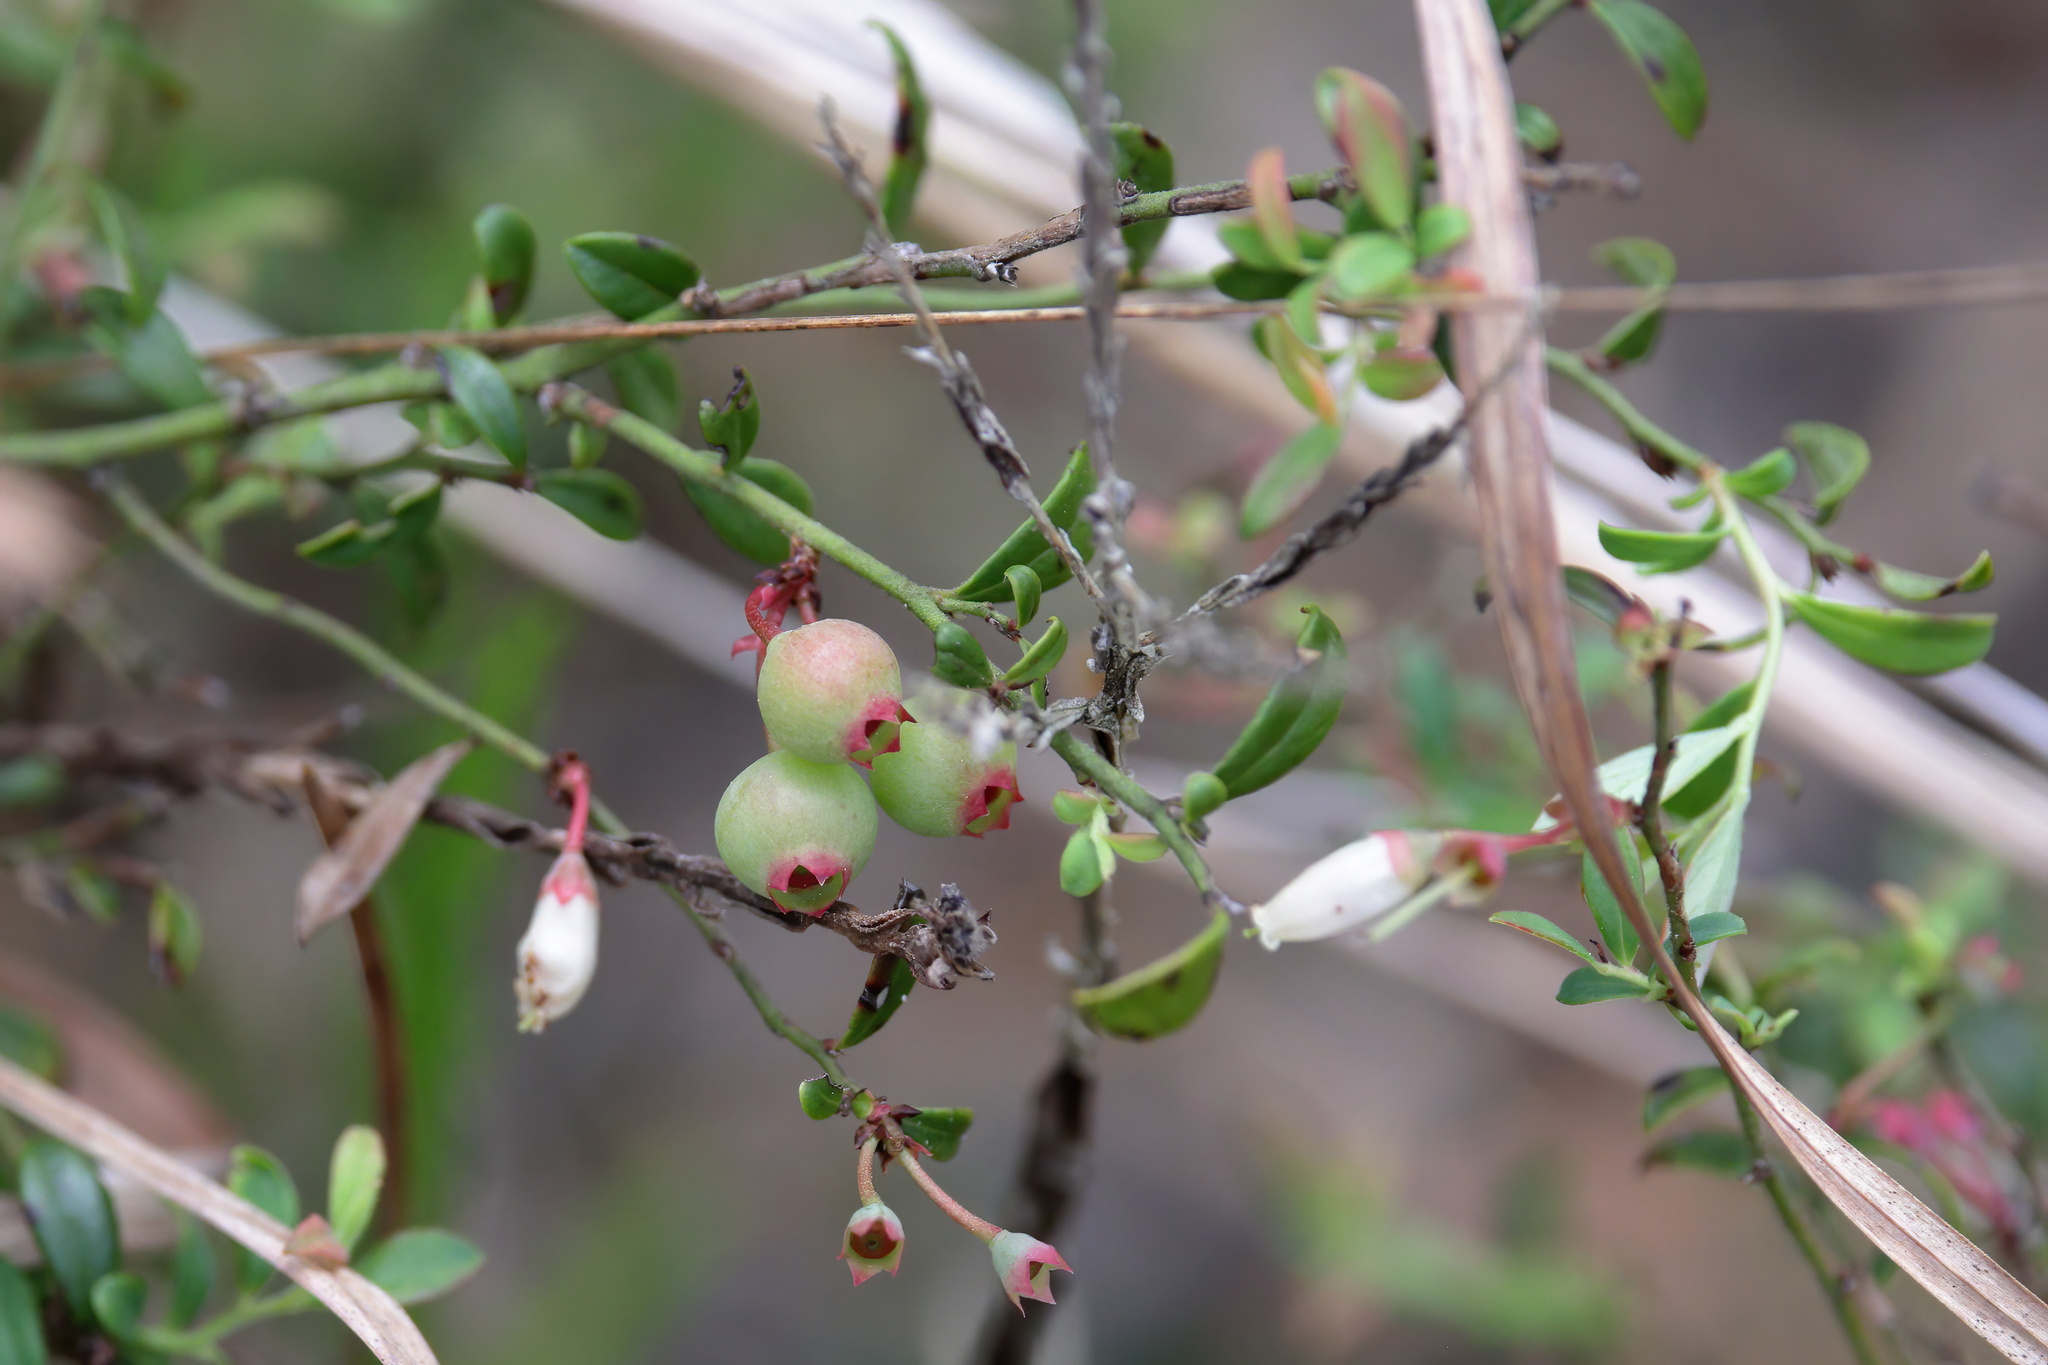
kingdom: Plantae
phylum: Tracheophyta
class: Magnoliopsida
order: Ericales
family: Ericaceae
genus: Vaccinium
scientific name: Vaccinium darrowii
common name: Darrow's blueberry
